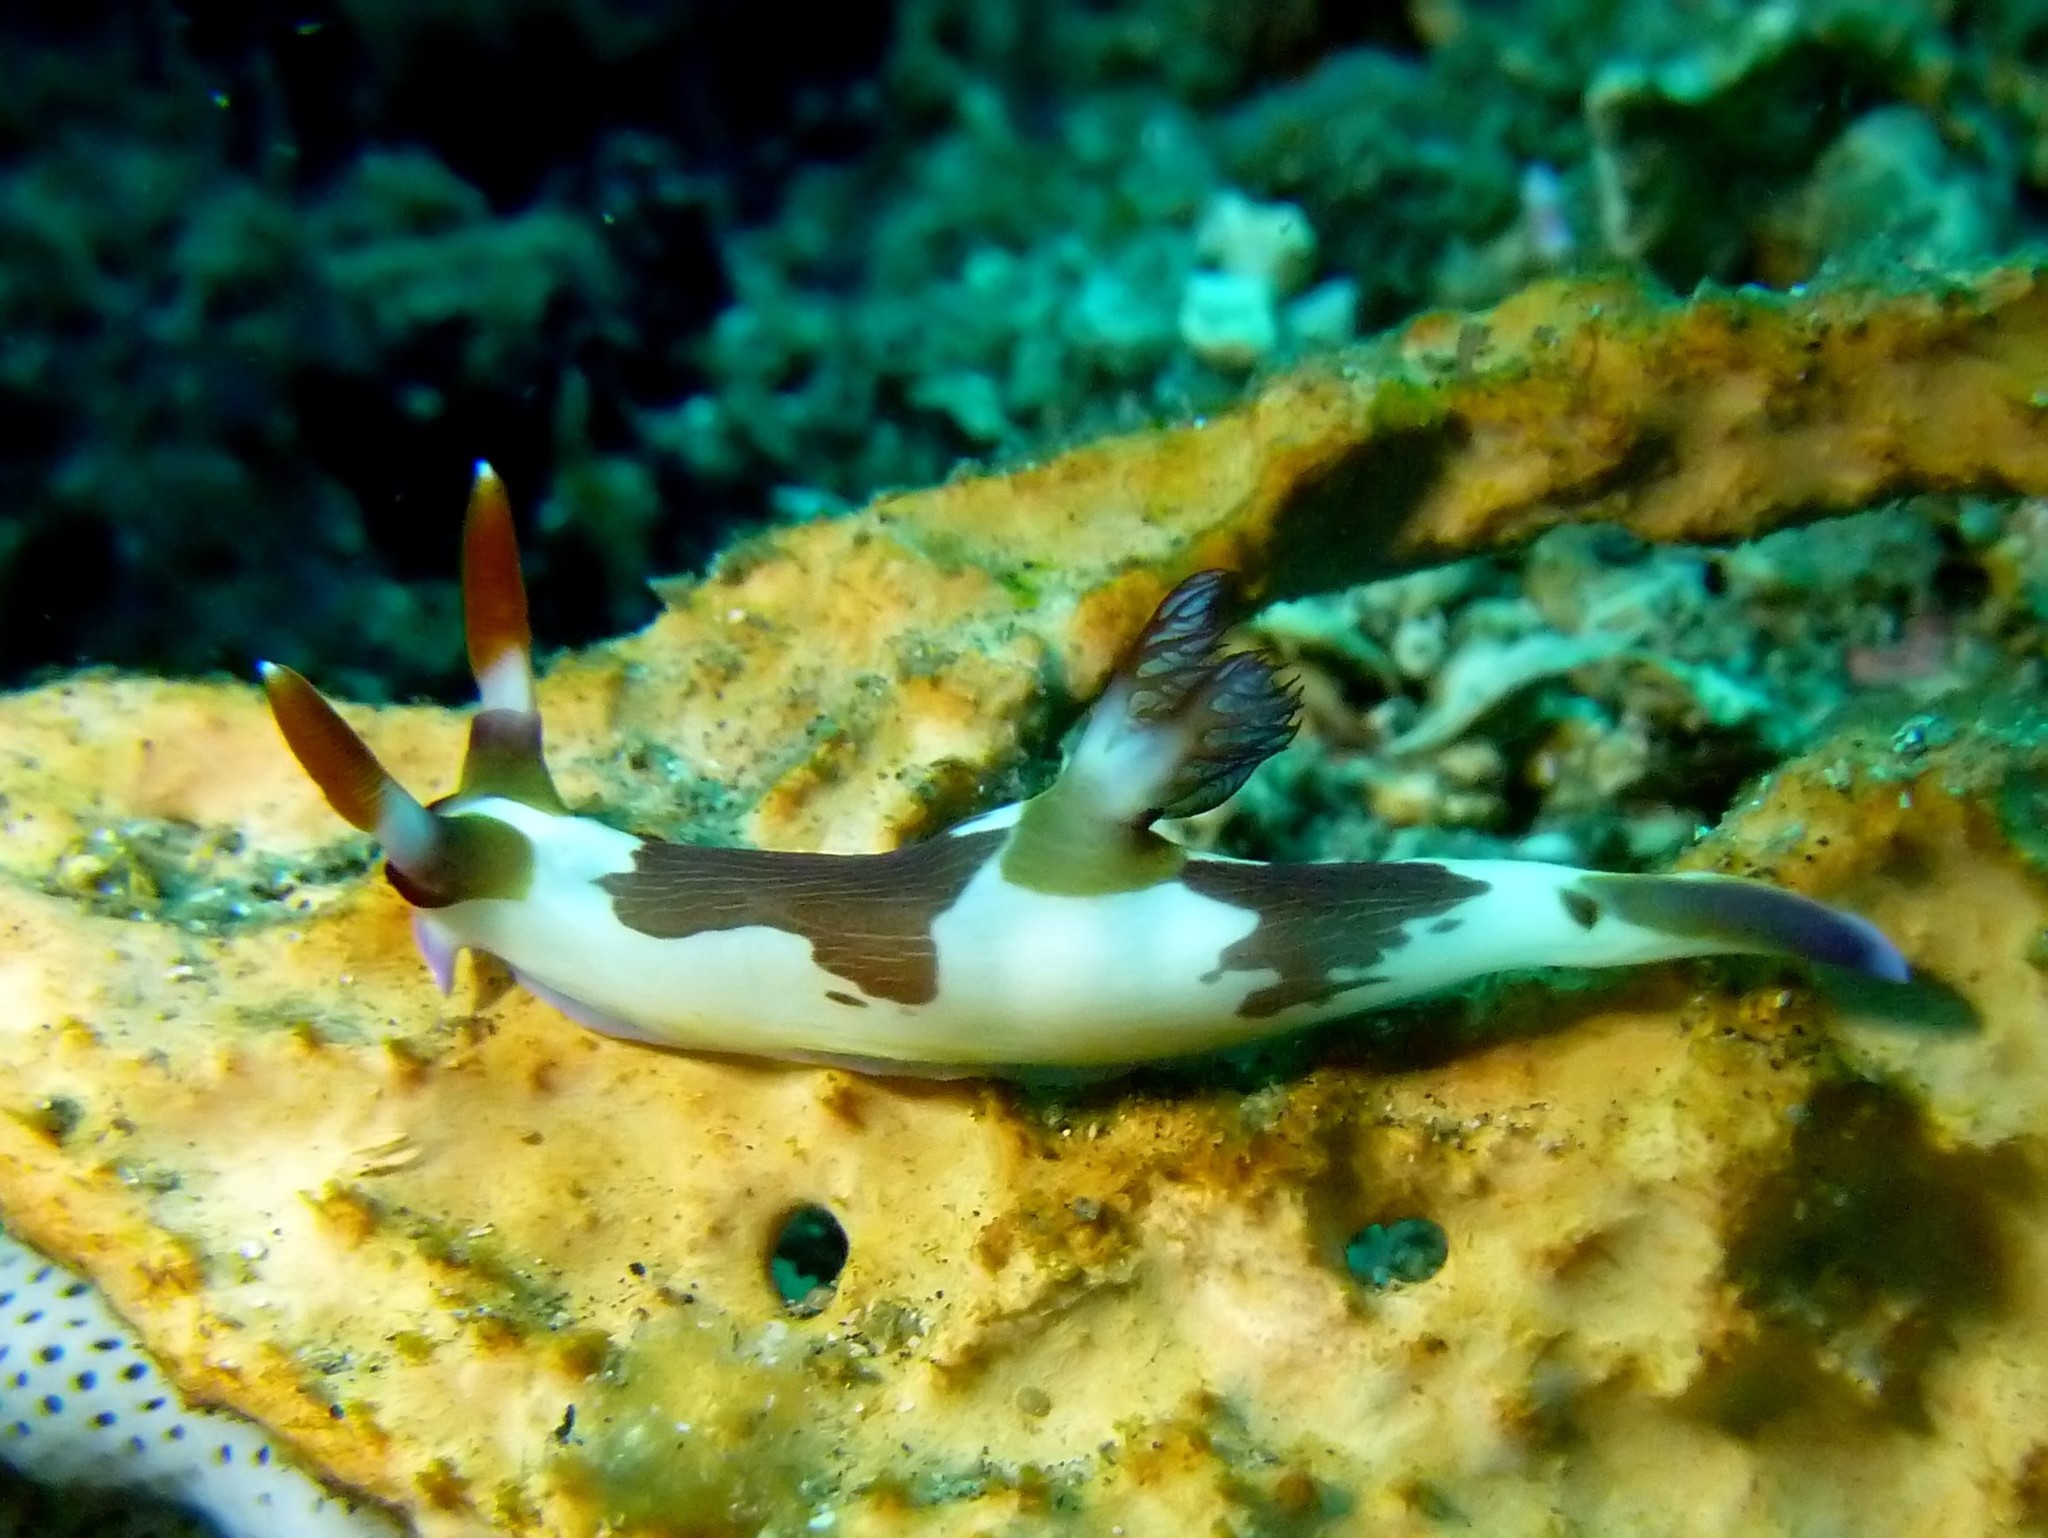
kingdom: Animalia
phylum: Mollusca
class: Gastropoda
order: Nudibranchia
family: Polyceridae
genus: Nembrotha
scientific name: Nembrotha purpureolineata
